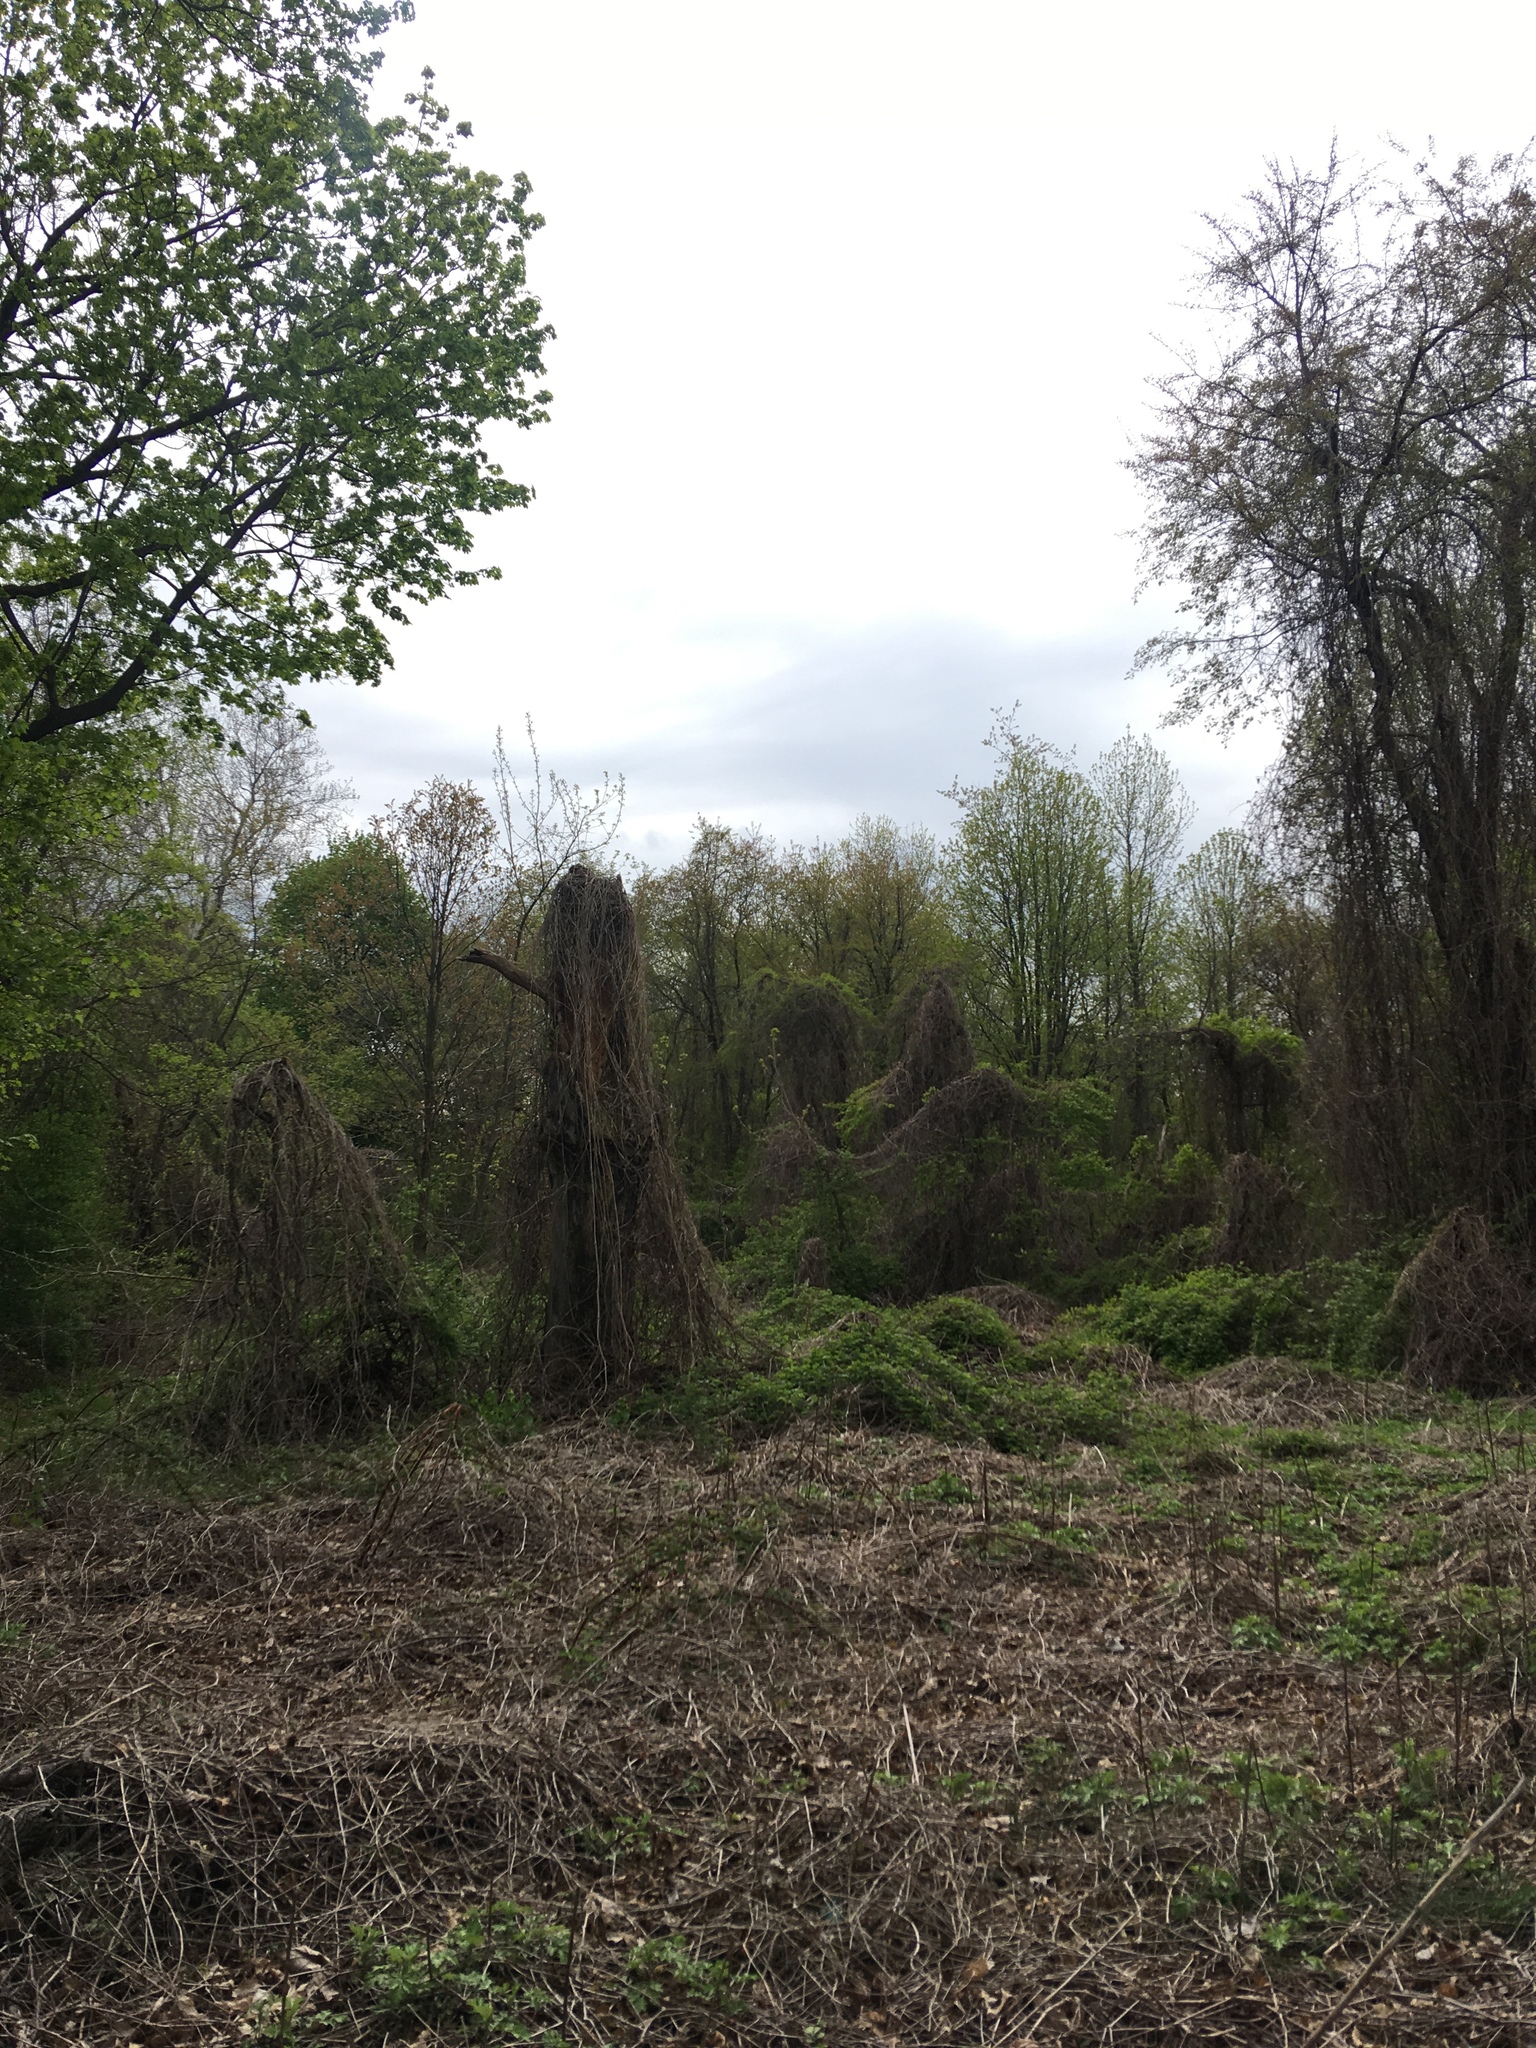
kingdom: Plantae
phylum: Tracheophyta
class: Magnoliopsida
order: Vitales
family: Vitaceae
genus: Ampelopsis
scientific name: Ampelopsis glandulosa
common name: Amur peppervine
